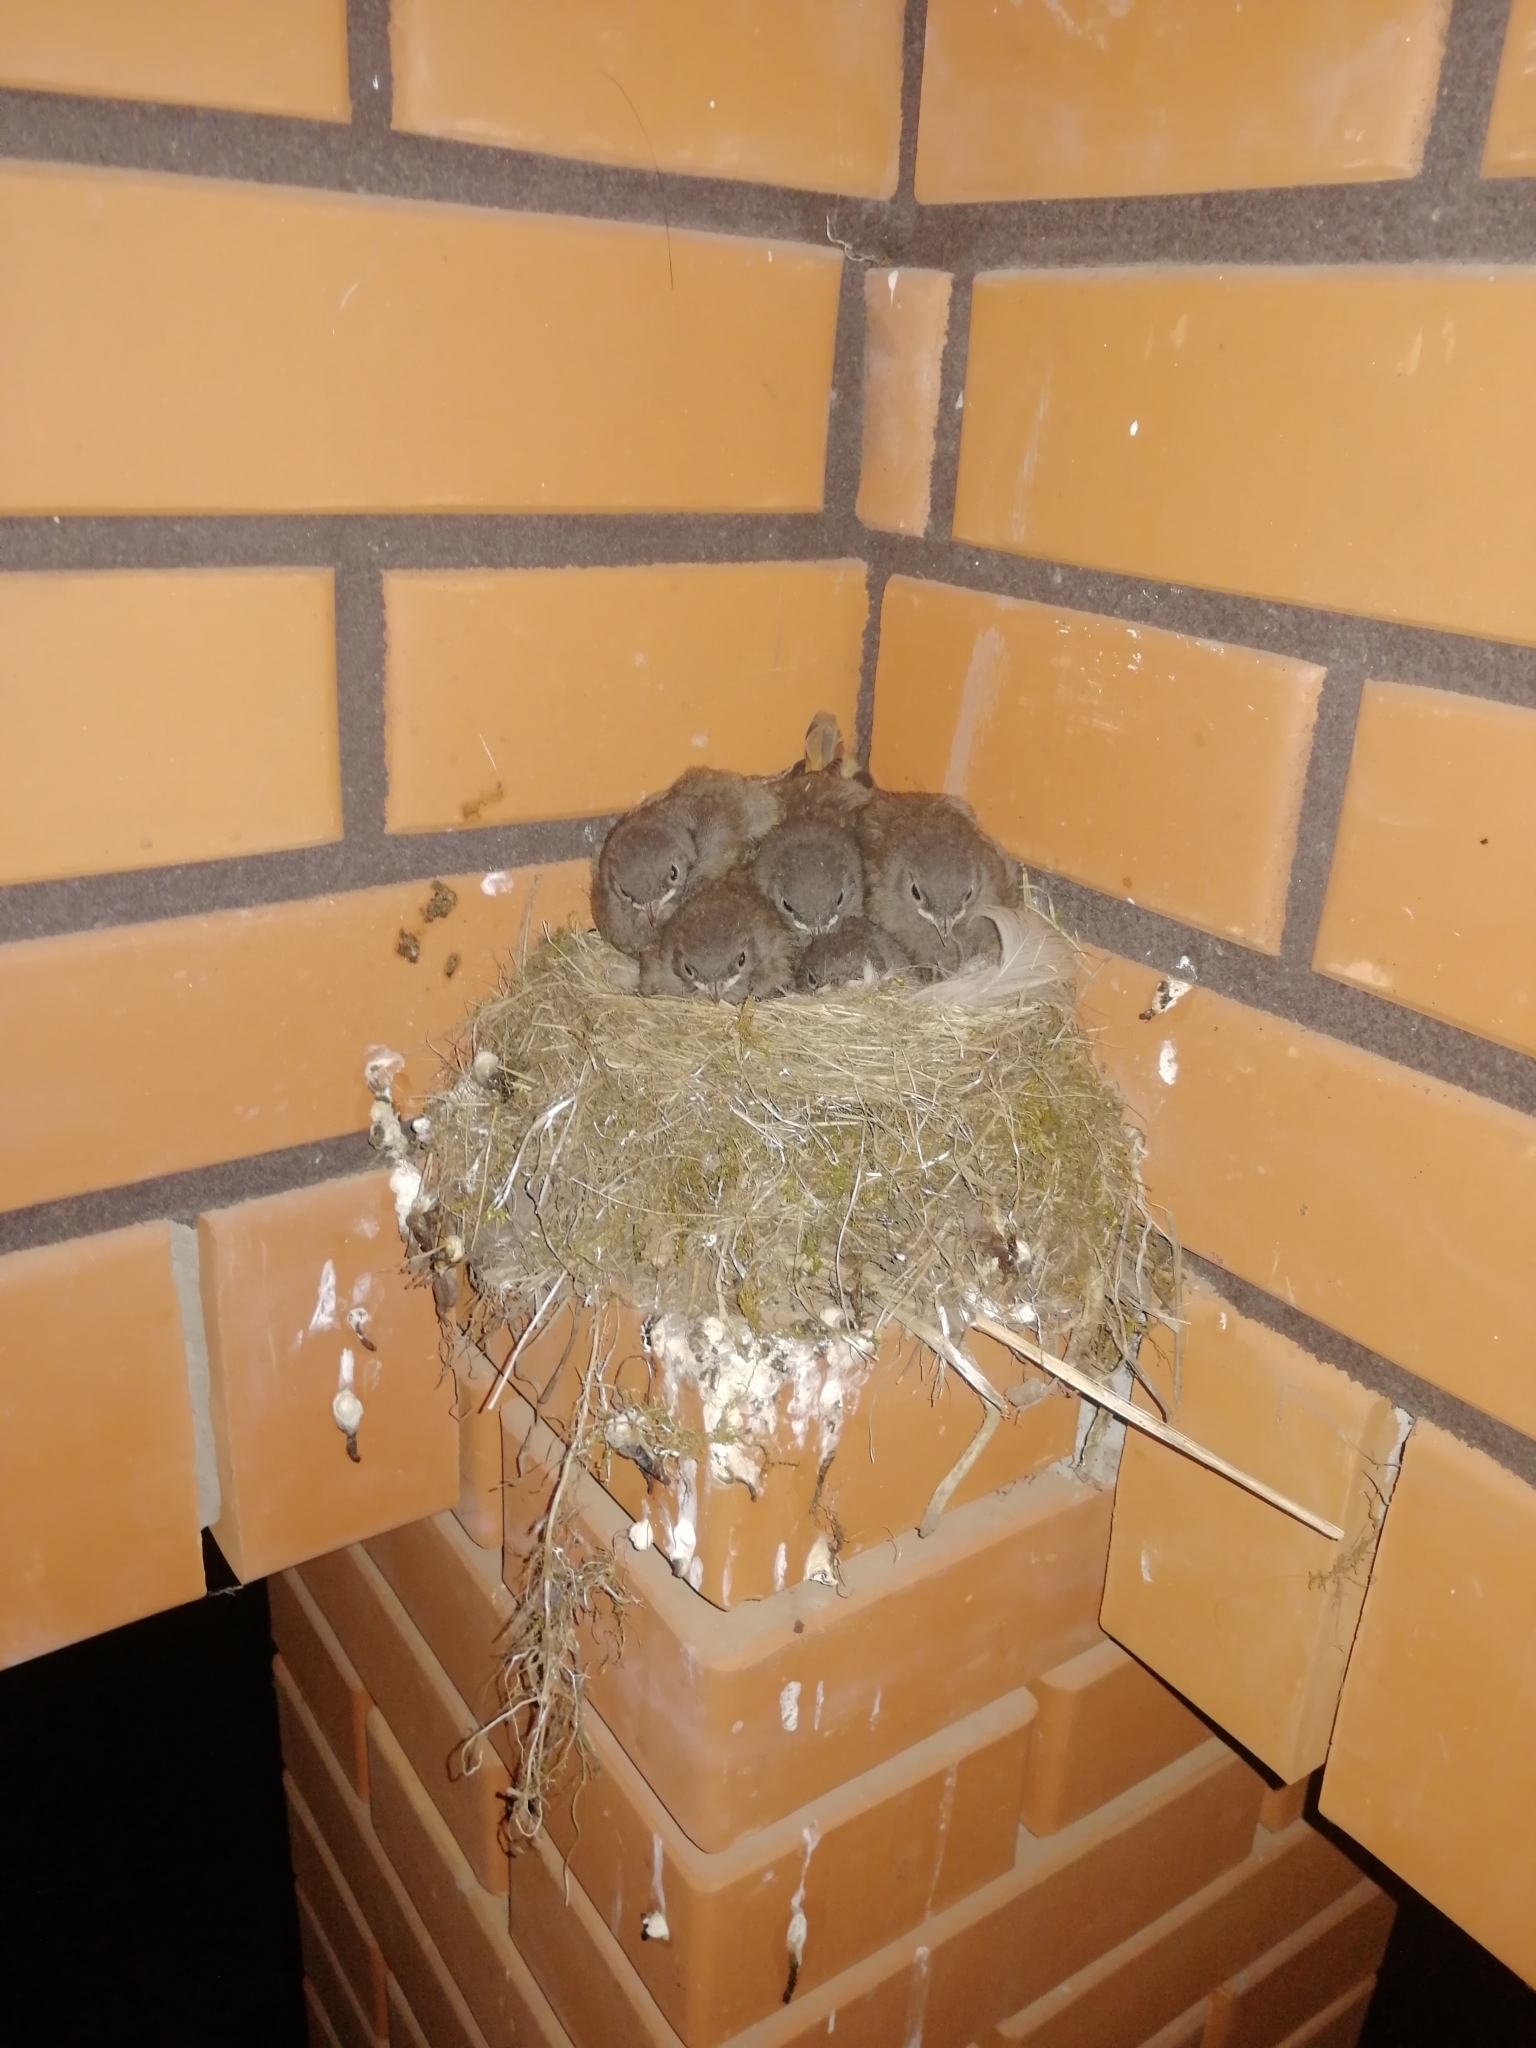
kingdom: Animalia
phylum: Chordata
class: Aves
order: Passeriformes
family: Muscicapidae
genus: Phoenicurus
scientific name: Phoenicurus ochruros
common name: Black redstart
